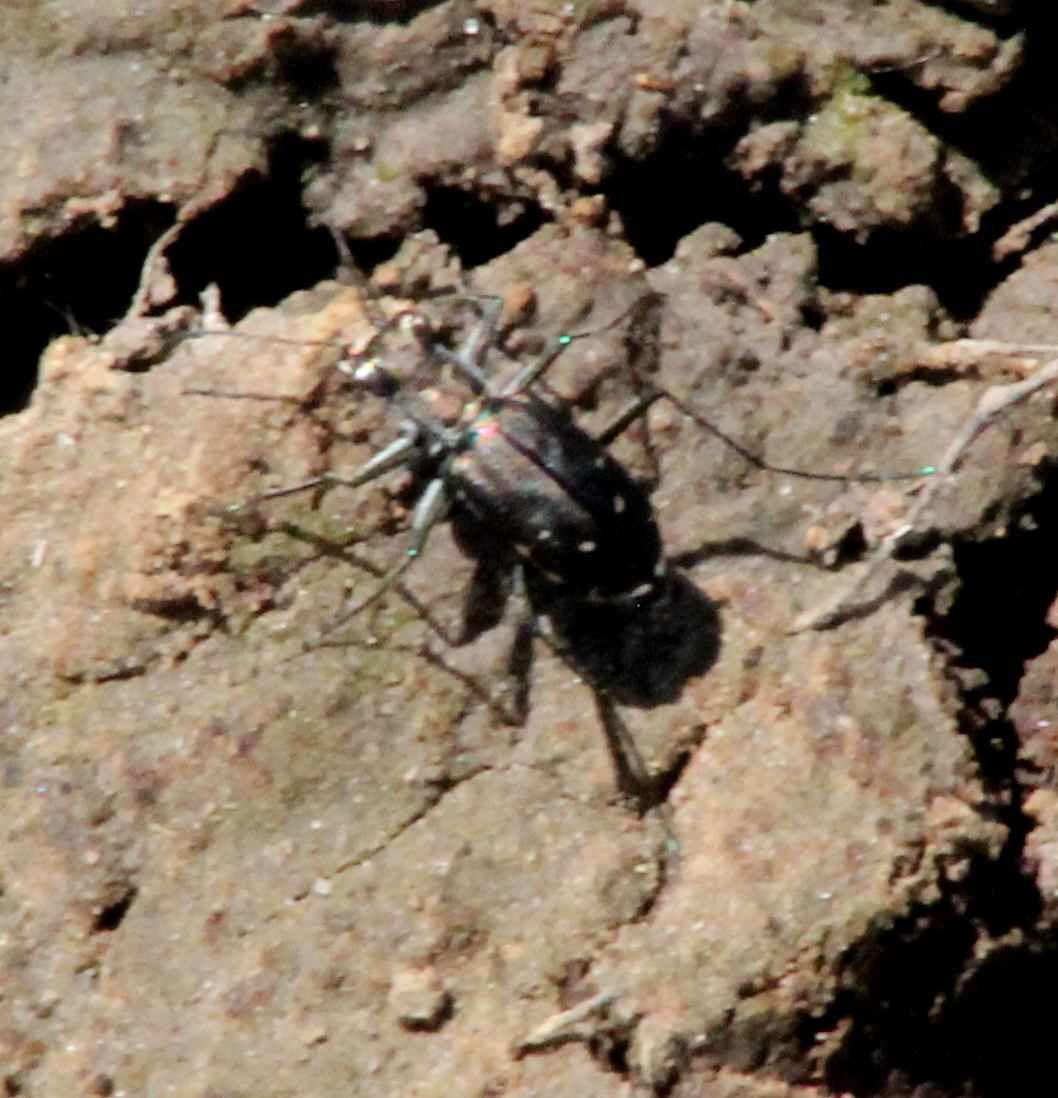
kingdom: Animalia
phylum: Arthropoda
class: Insecta
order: Coleoptera
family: Carabidae
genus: Cicindela
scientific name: Cicindela punctulata
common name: Punctured tiger beetle
